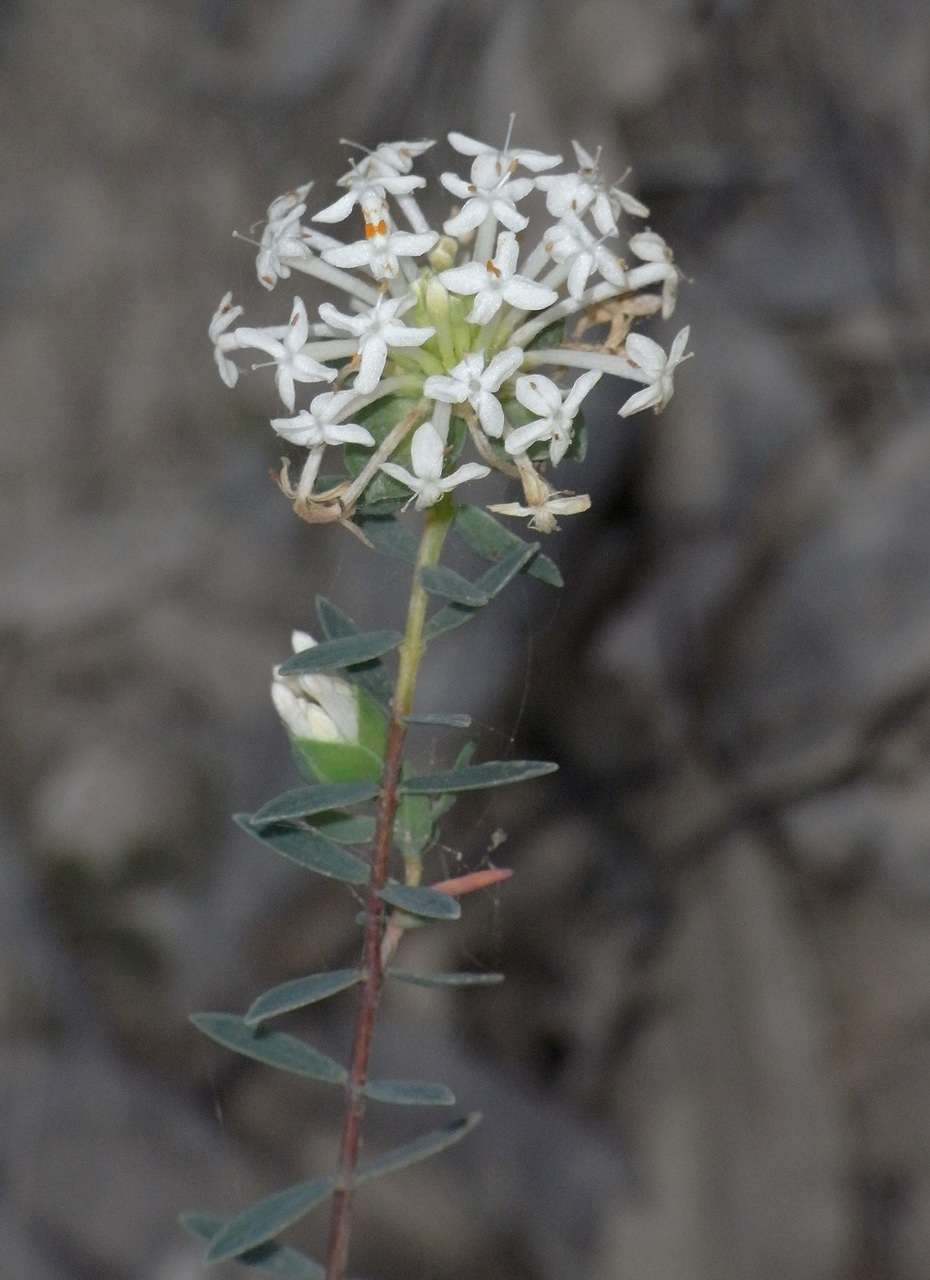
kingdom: Plantae
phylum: Tracheophyta
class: Magnoliopsida
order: Malvales
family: Thymelaeaceae
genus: Pimelea
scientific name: Pimelea linifolia
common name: Queen-of-the-bush
